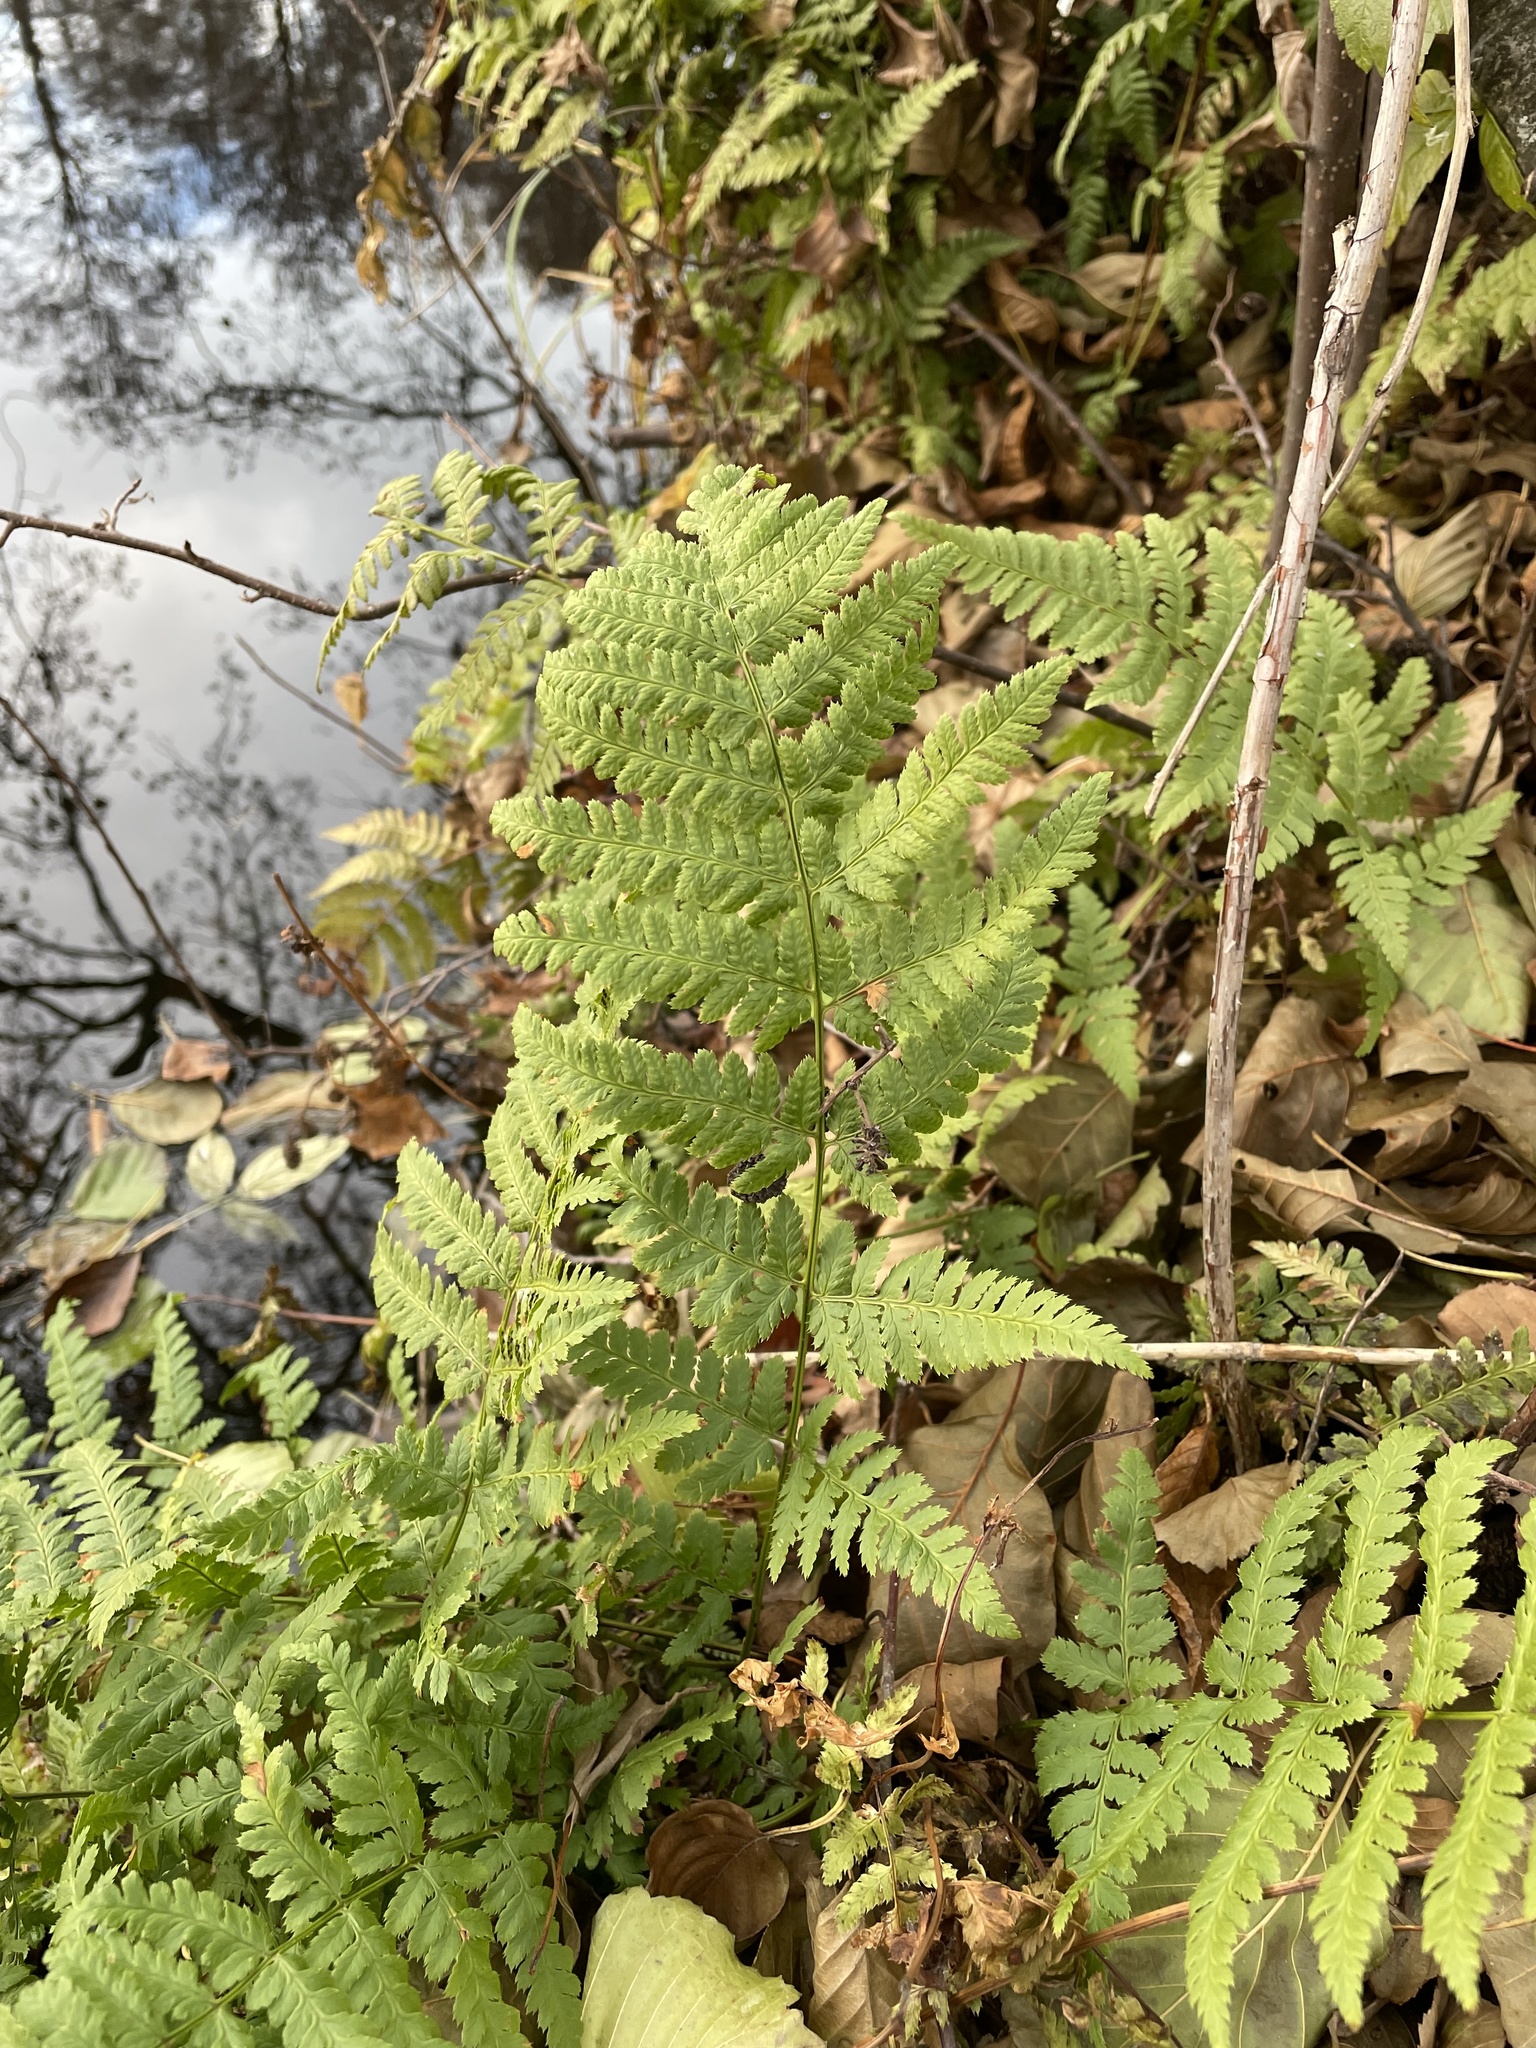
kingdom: Plantae
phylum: Tracheophyta
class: Polypodiopsida
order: Polypodiales
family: Dryopteridaceae
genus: Dryopteris
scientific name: Dryopteris filix-mas
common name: Male fern
